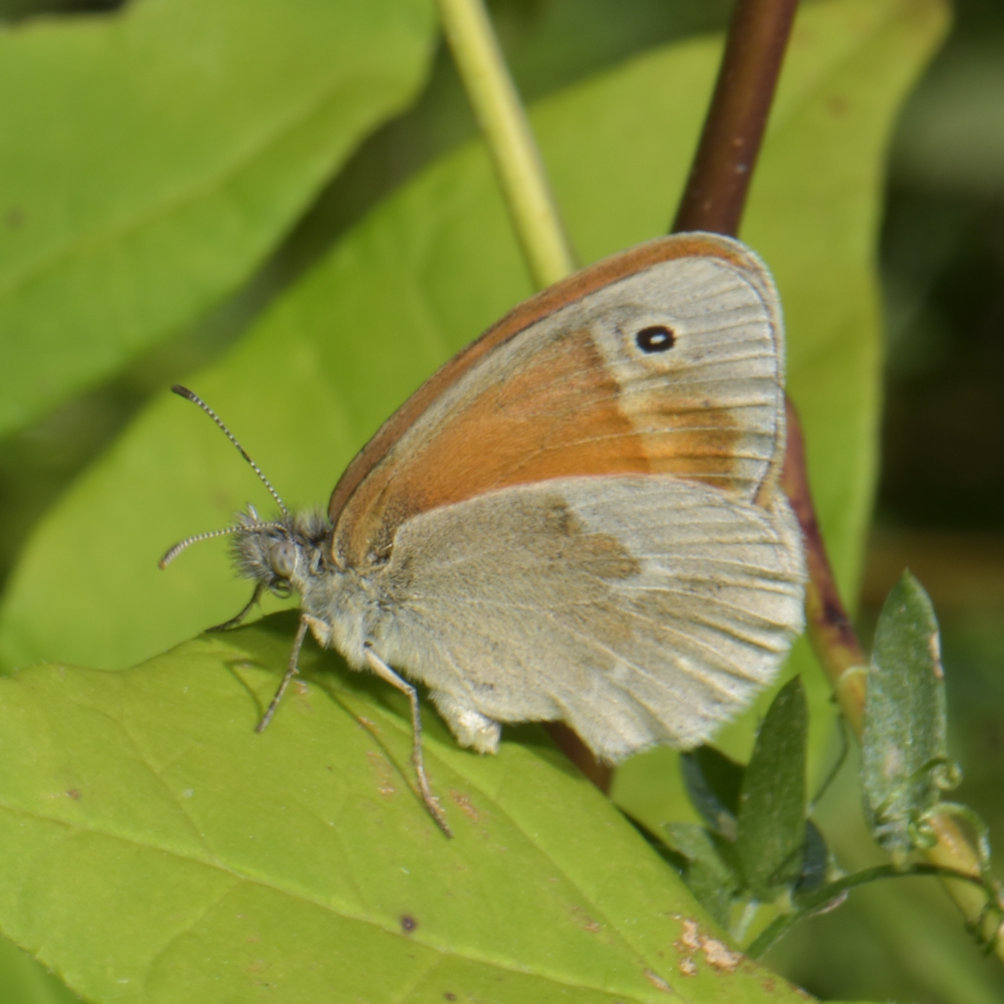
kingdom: Animalia
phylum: Arthropoda
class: Insecta
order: Lepidoptera
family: Nymphalidae
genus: Coenonympha
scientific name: Coenonympha california
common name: Common ringlet
